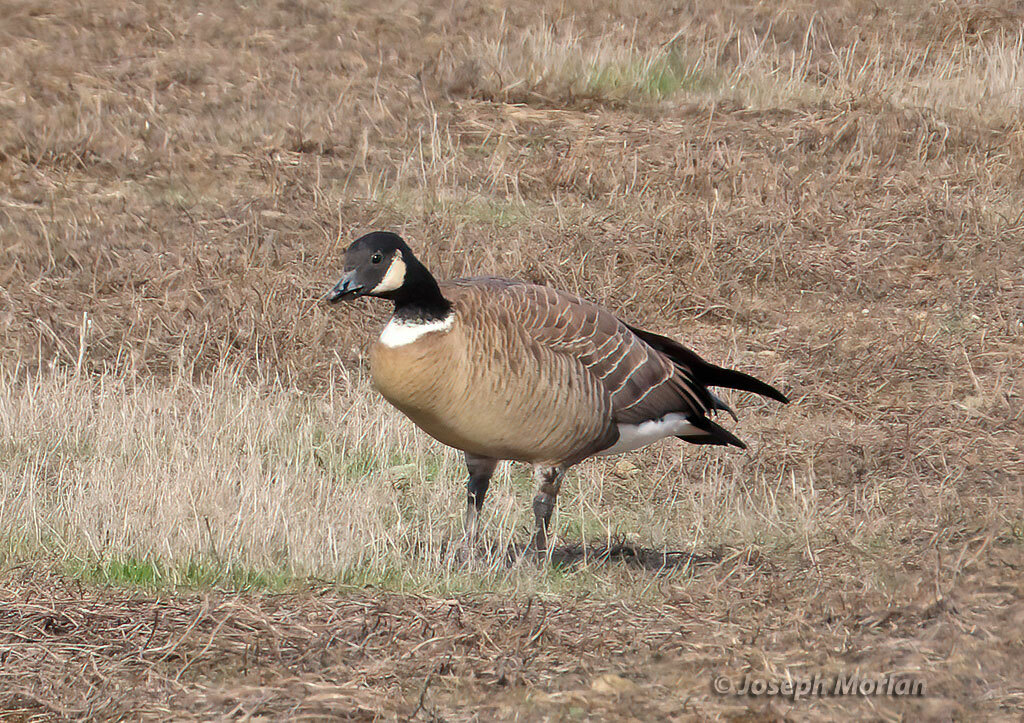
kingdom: Animalia
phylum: Chordata
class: Aves
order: Anseriformes
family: Anatidae
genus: Branta
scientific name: Branta hutchinsii
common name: Cackling goose
